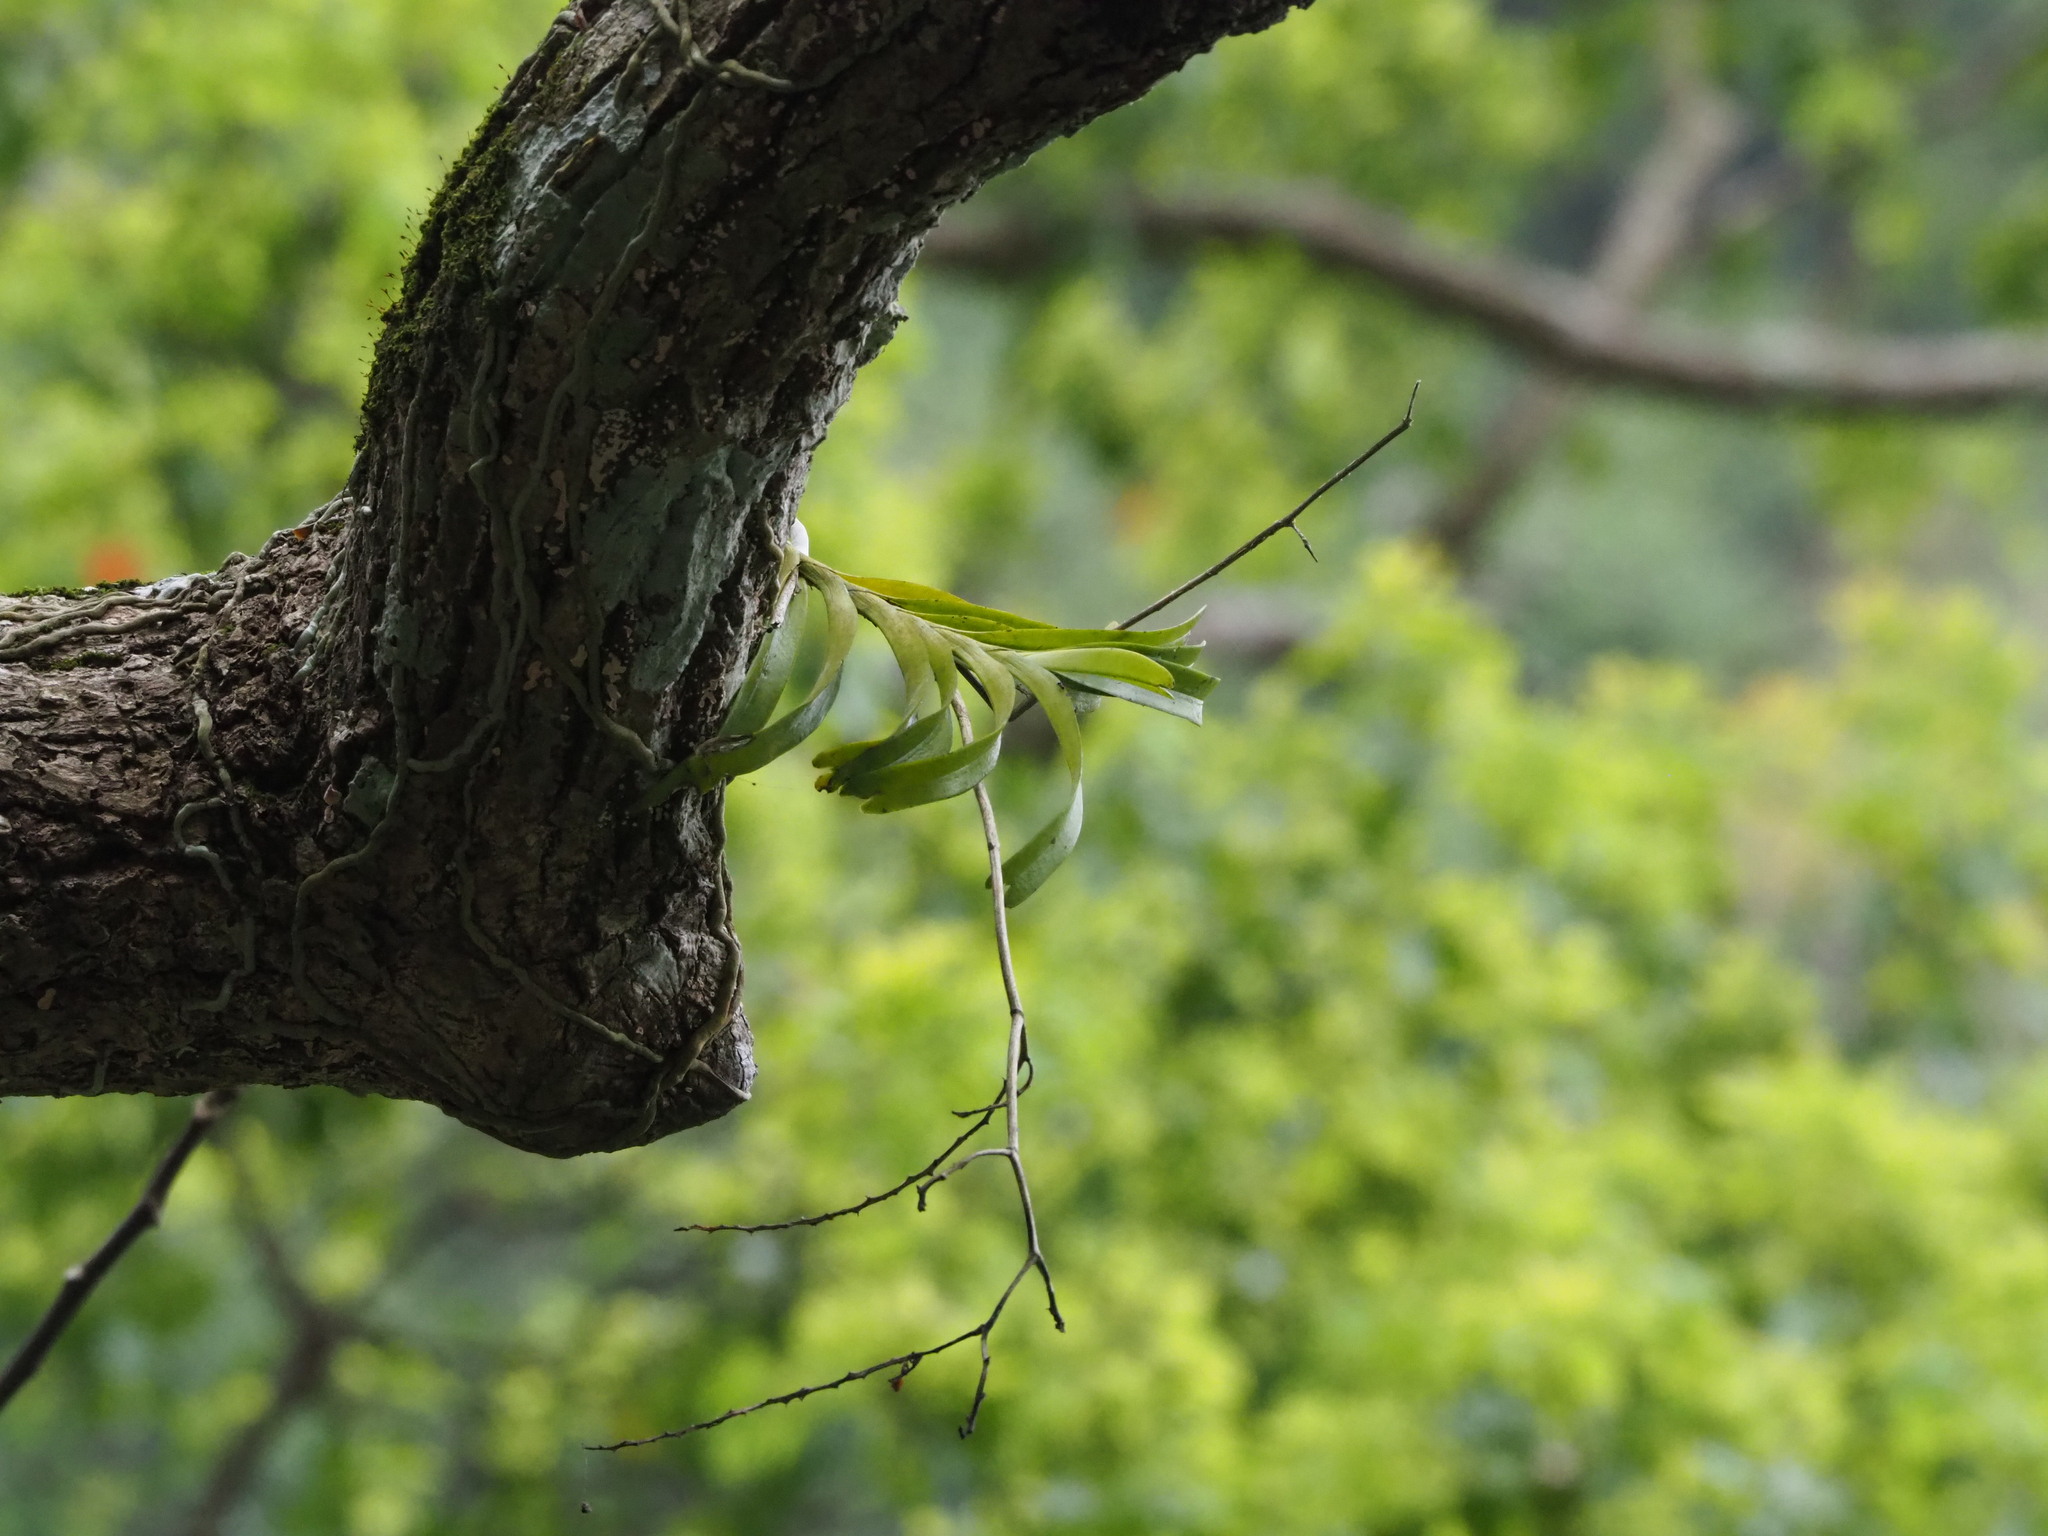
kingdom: Plantae
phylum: Tracheophyta
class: Liliopsida
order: Asparagales
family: Orchidaceae
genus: Cleisostoma
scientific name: Cleisostoma paniculatum
